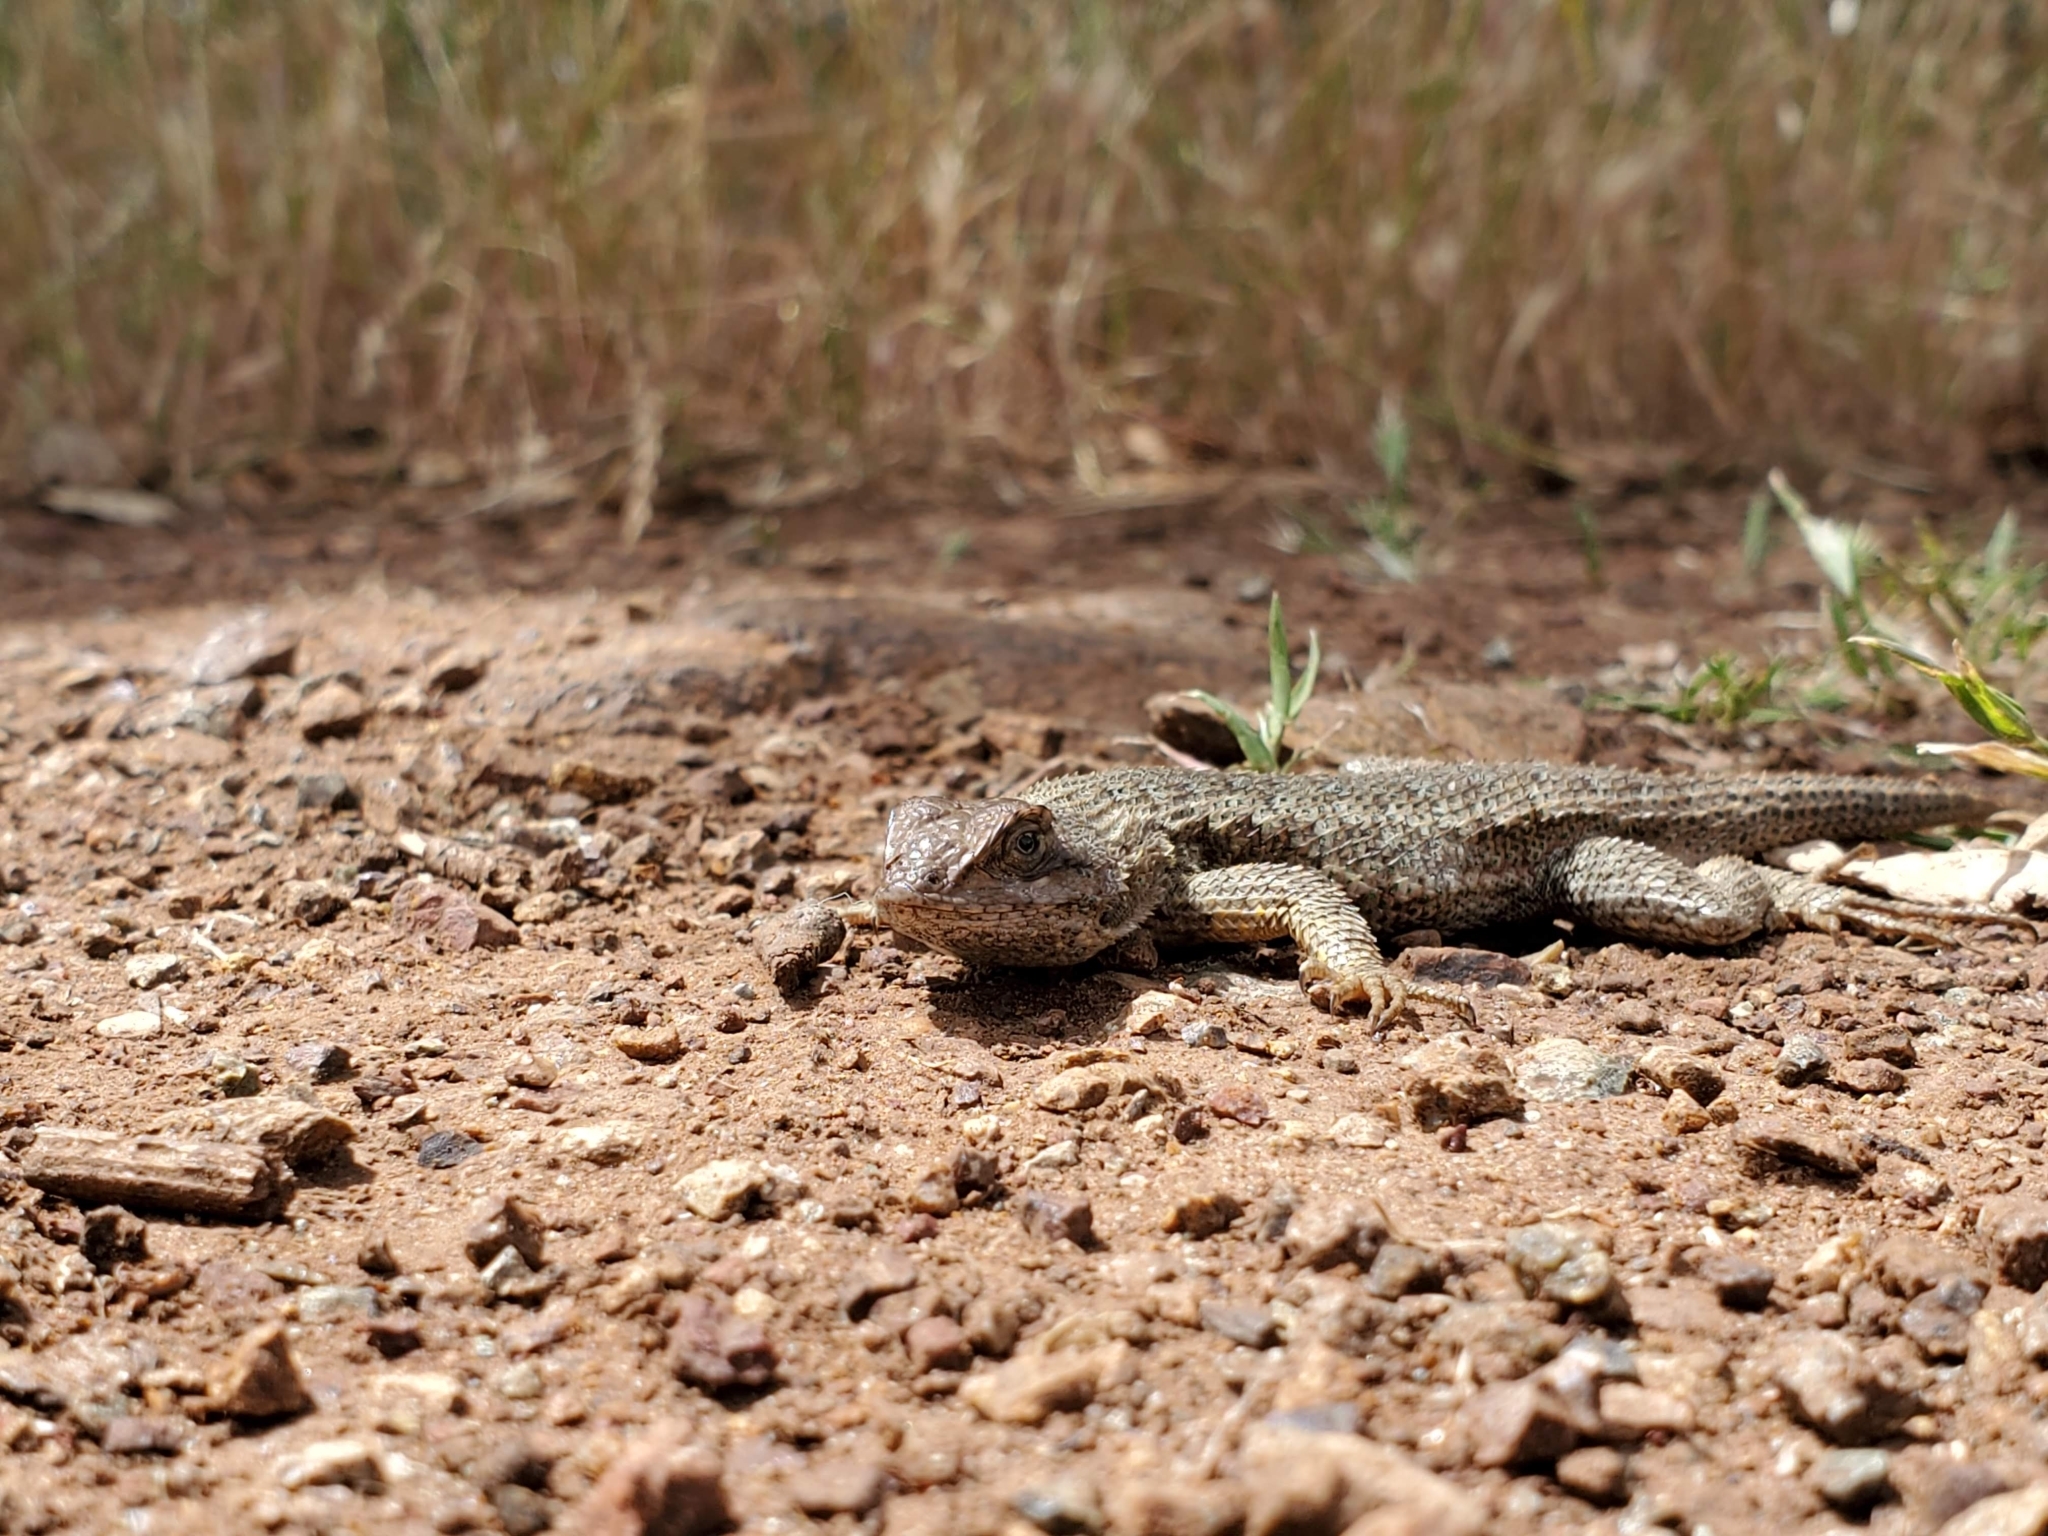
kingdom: Animalia
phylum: Chordata
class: Squamata
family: Phrynosomatidae
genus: Sceloporus
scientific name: Sceloporus occidentalis
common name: Western fence lizard
